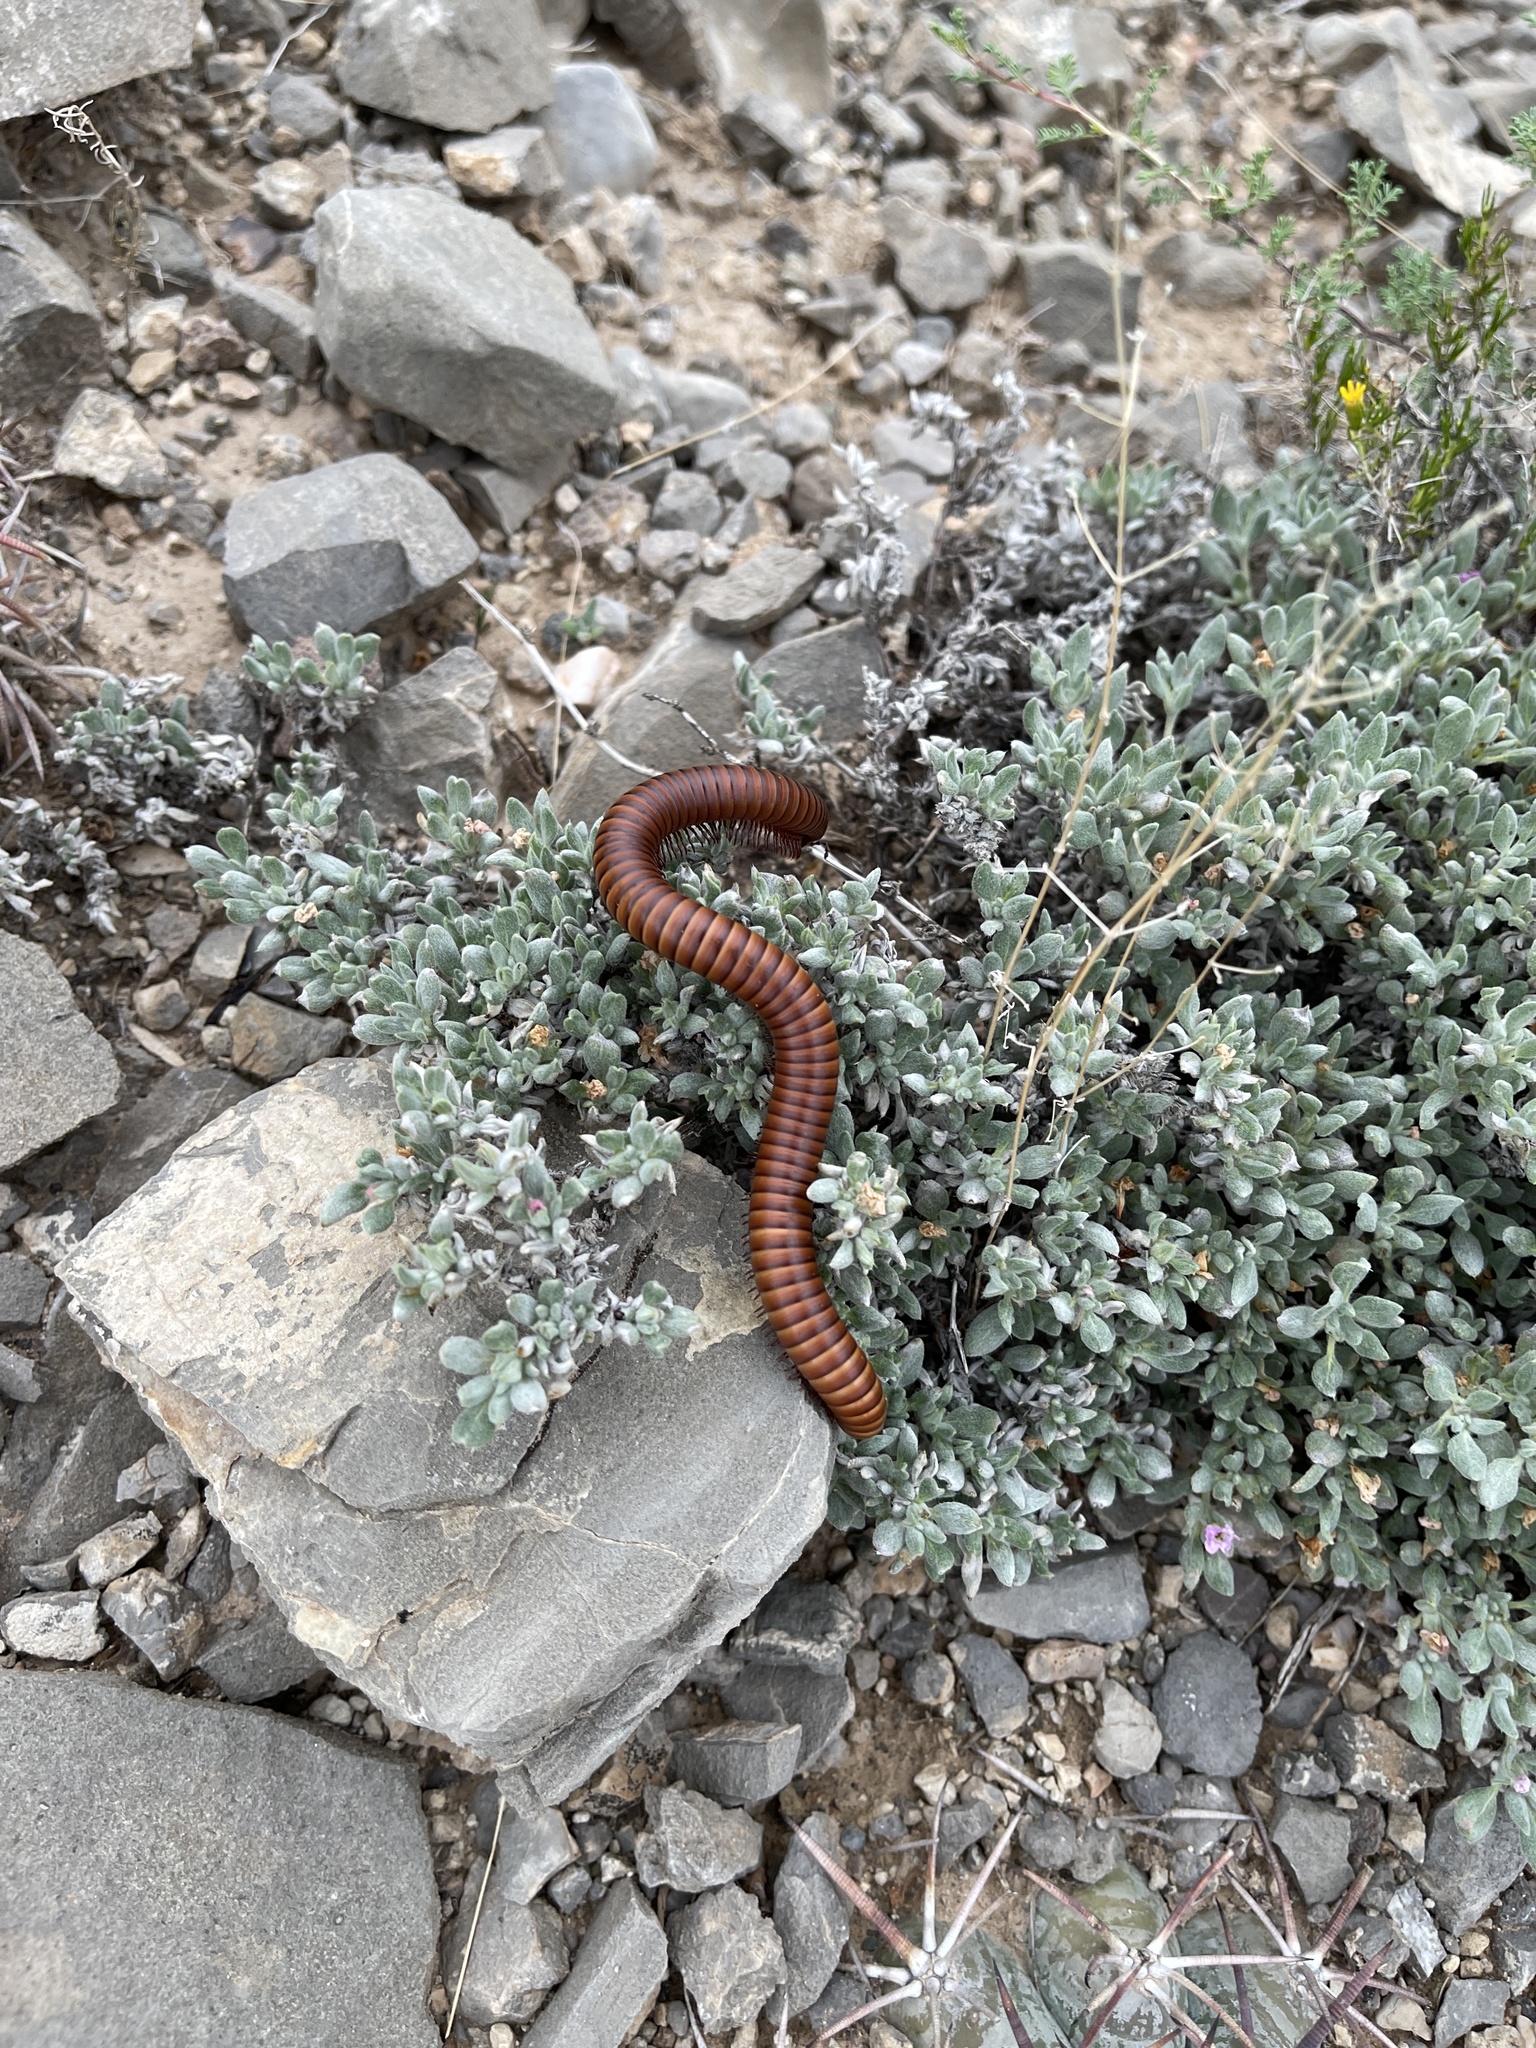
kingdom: Animalia
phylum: Arthropoda
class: Diplopoda
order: Spirostreptida
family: Spirostreptidae
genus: Orthoporus
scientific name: Orthoporus ornatus
